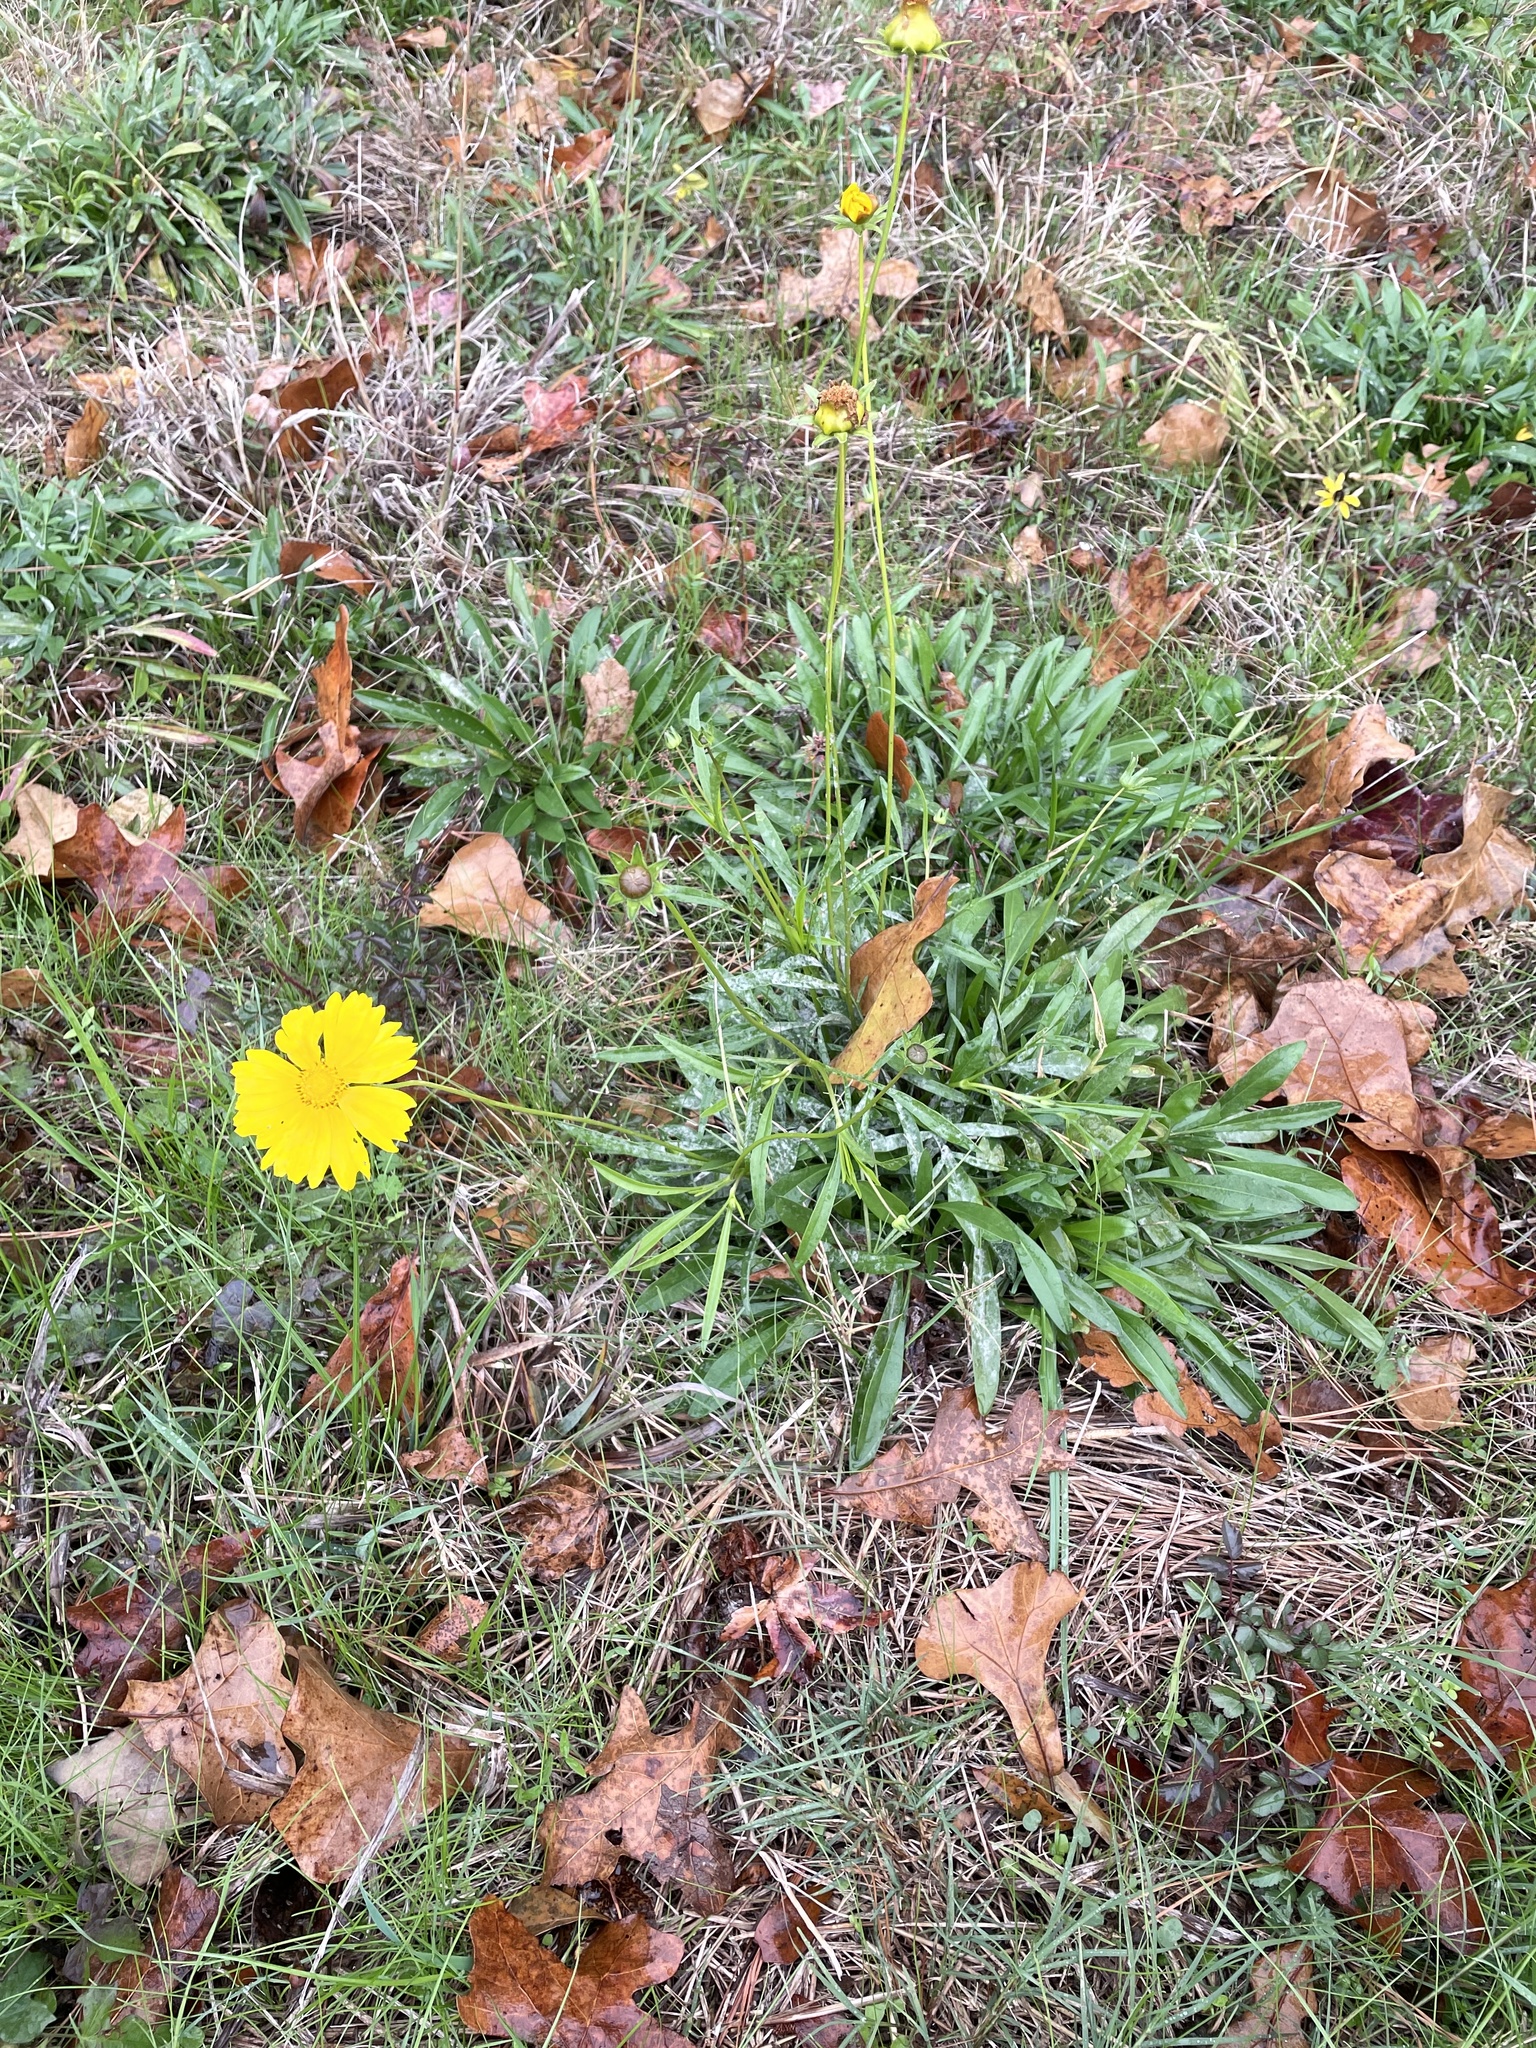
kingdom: Plantae
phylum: Tracheophyta
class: Magnoliopsida
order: Asterales
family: Asteraceae
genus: Coreopsis
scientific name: Coreopsis lanceolata
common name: Garden coreopsis
